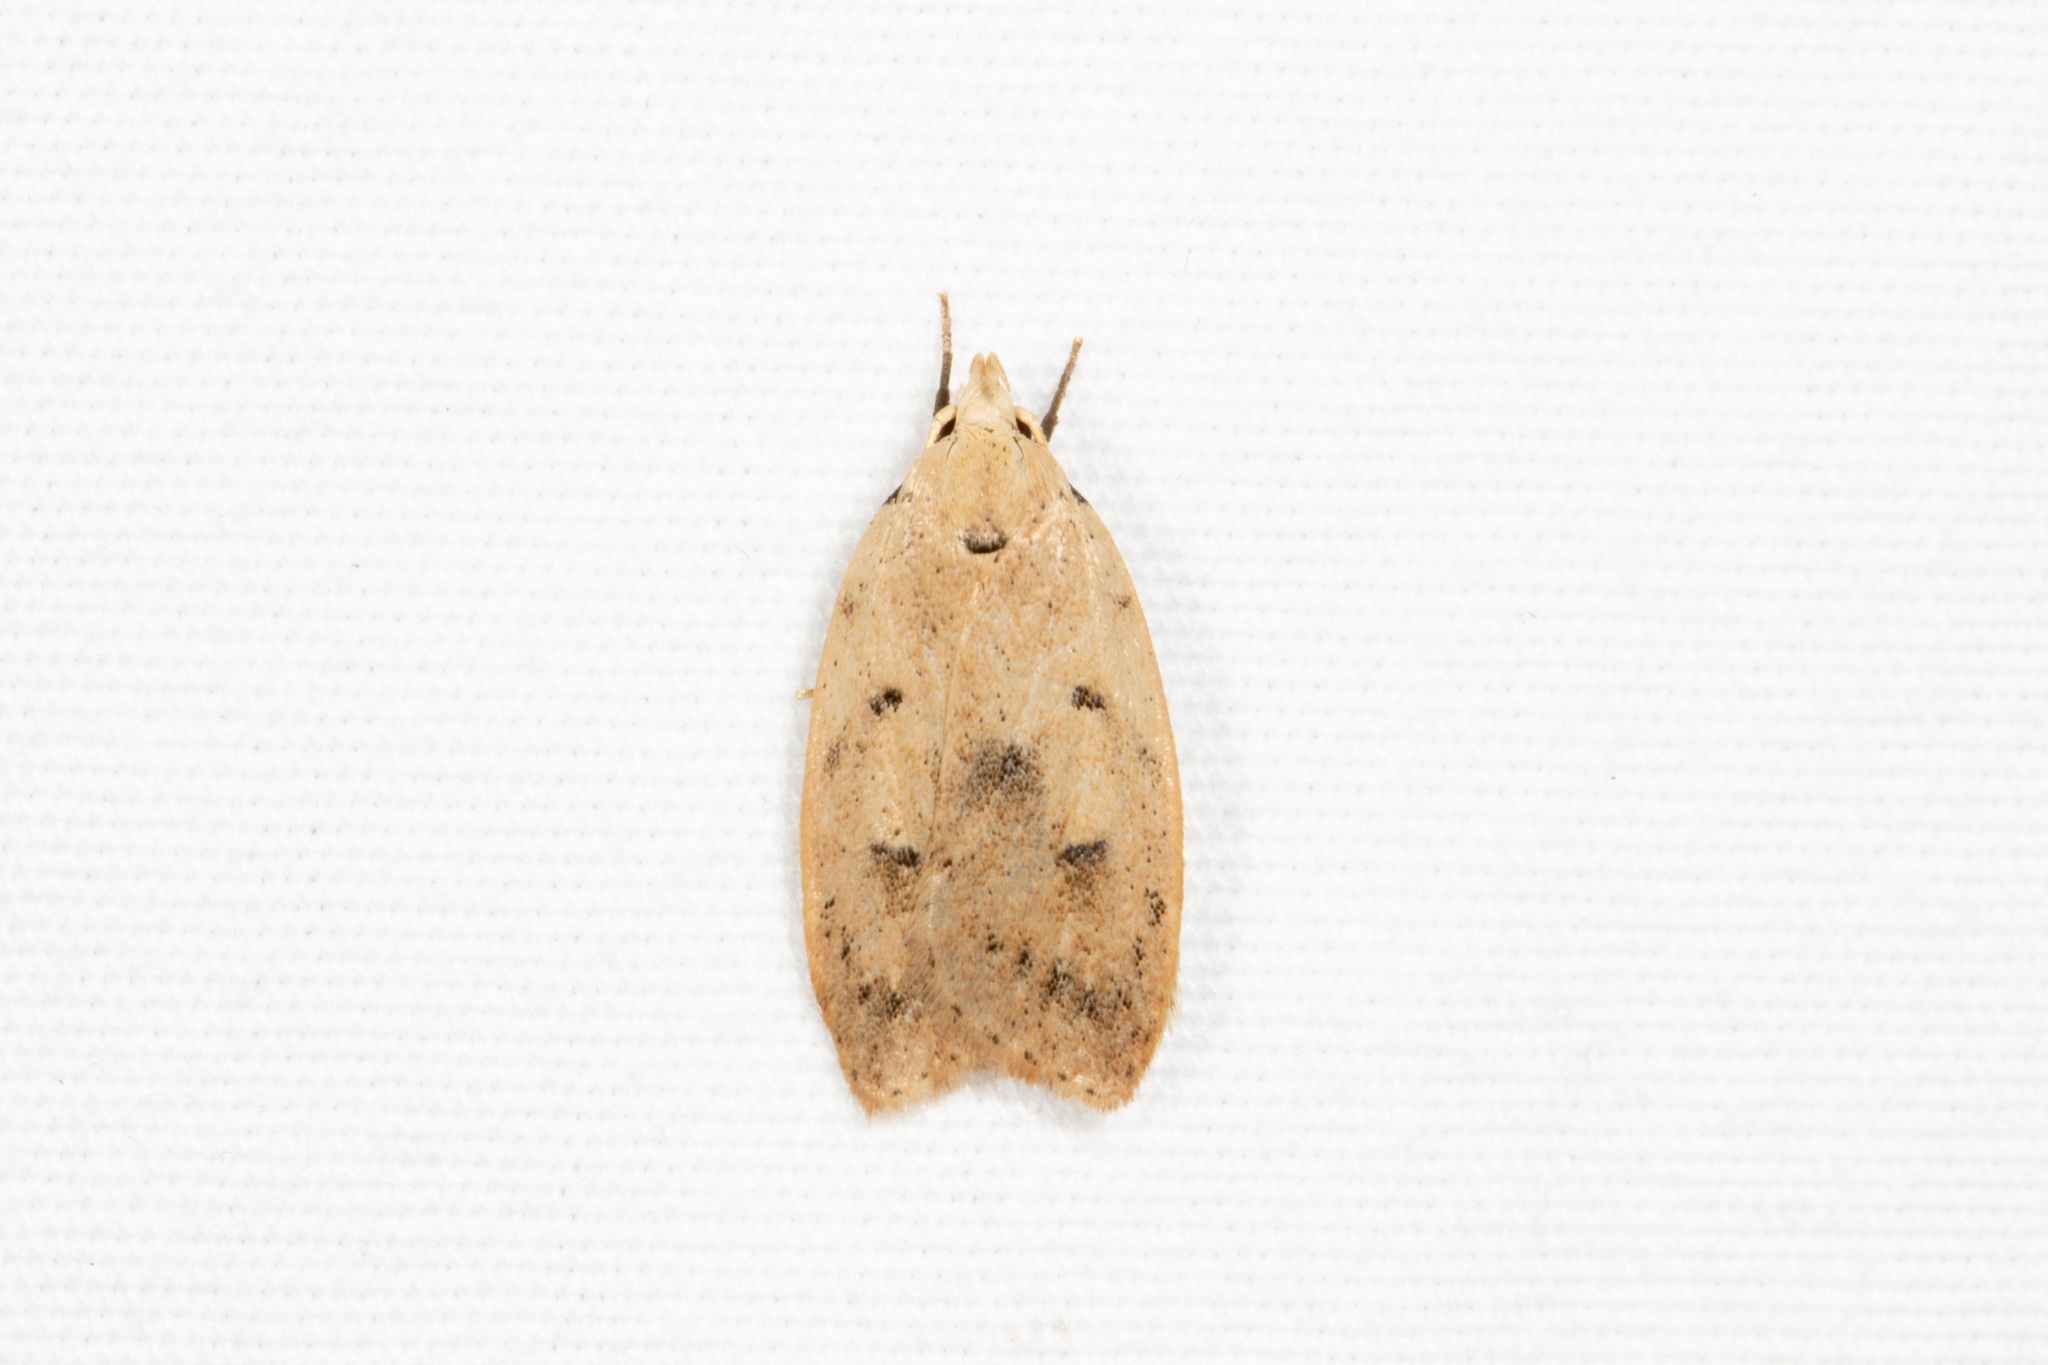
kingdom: Animalia
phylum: Arthropoda
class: Insecta
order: Lepidoptera
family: Peleopodidae
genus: Machimia
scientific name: Machimia tentoriferella
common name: Gold-striped leaftier moth
